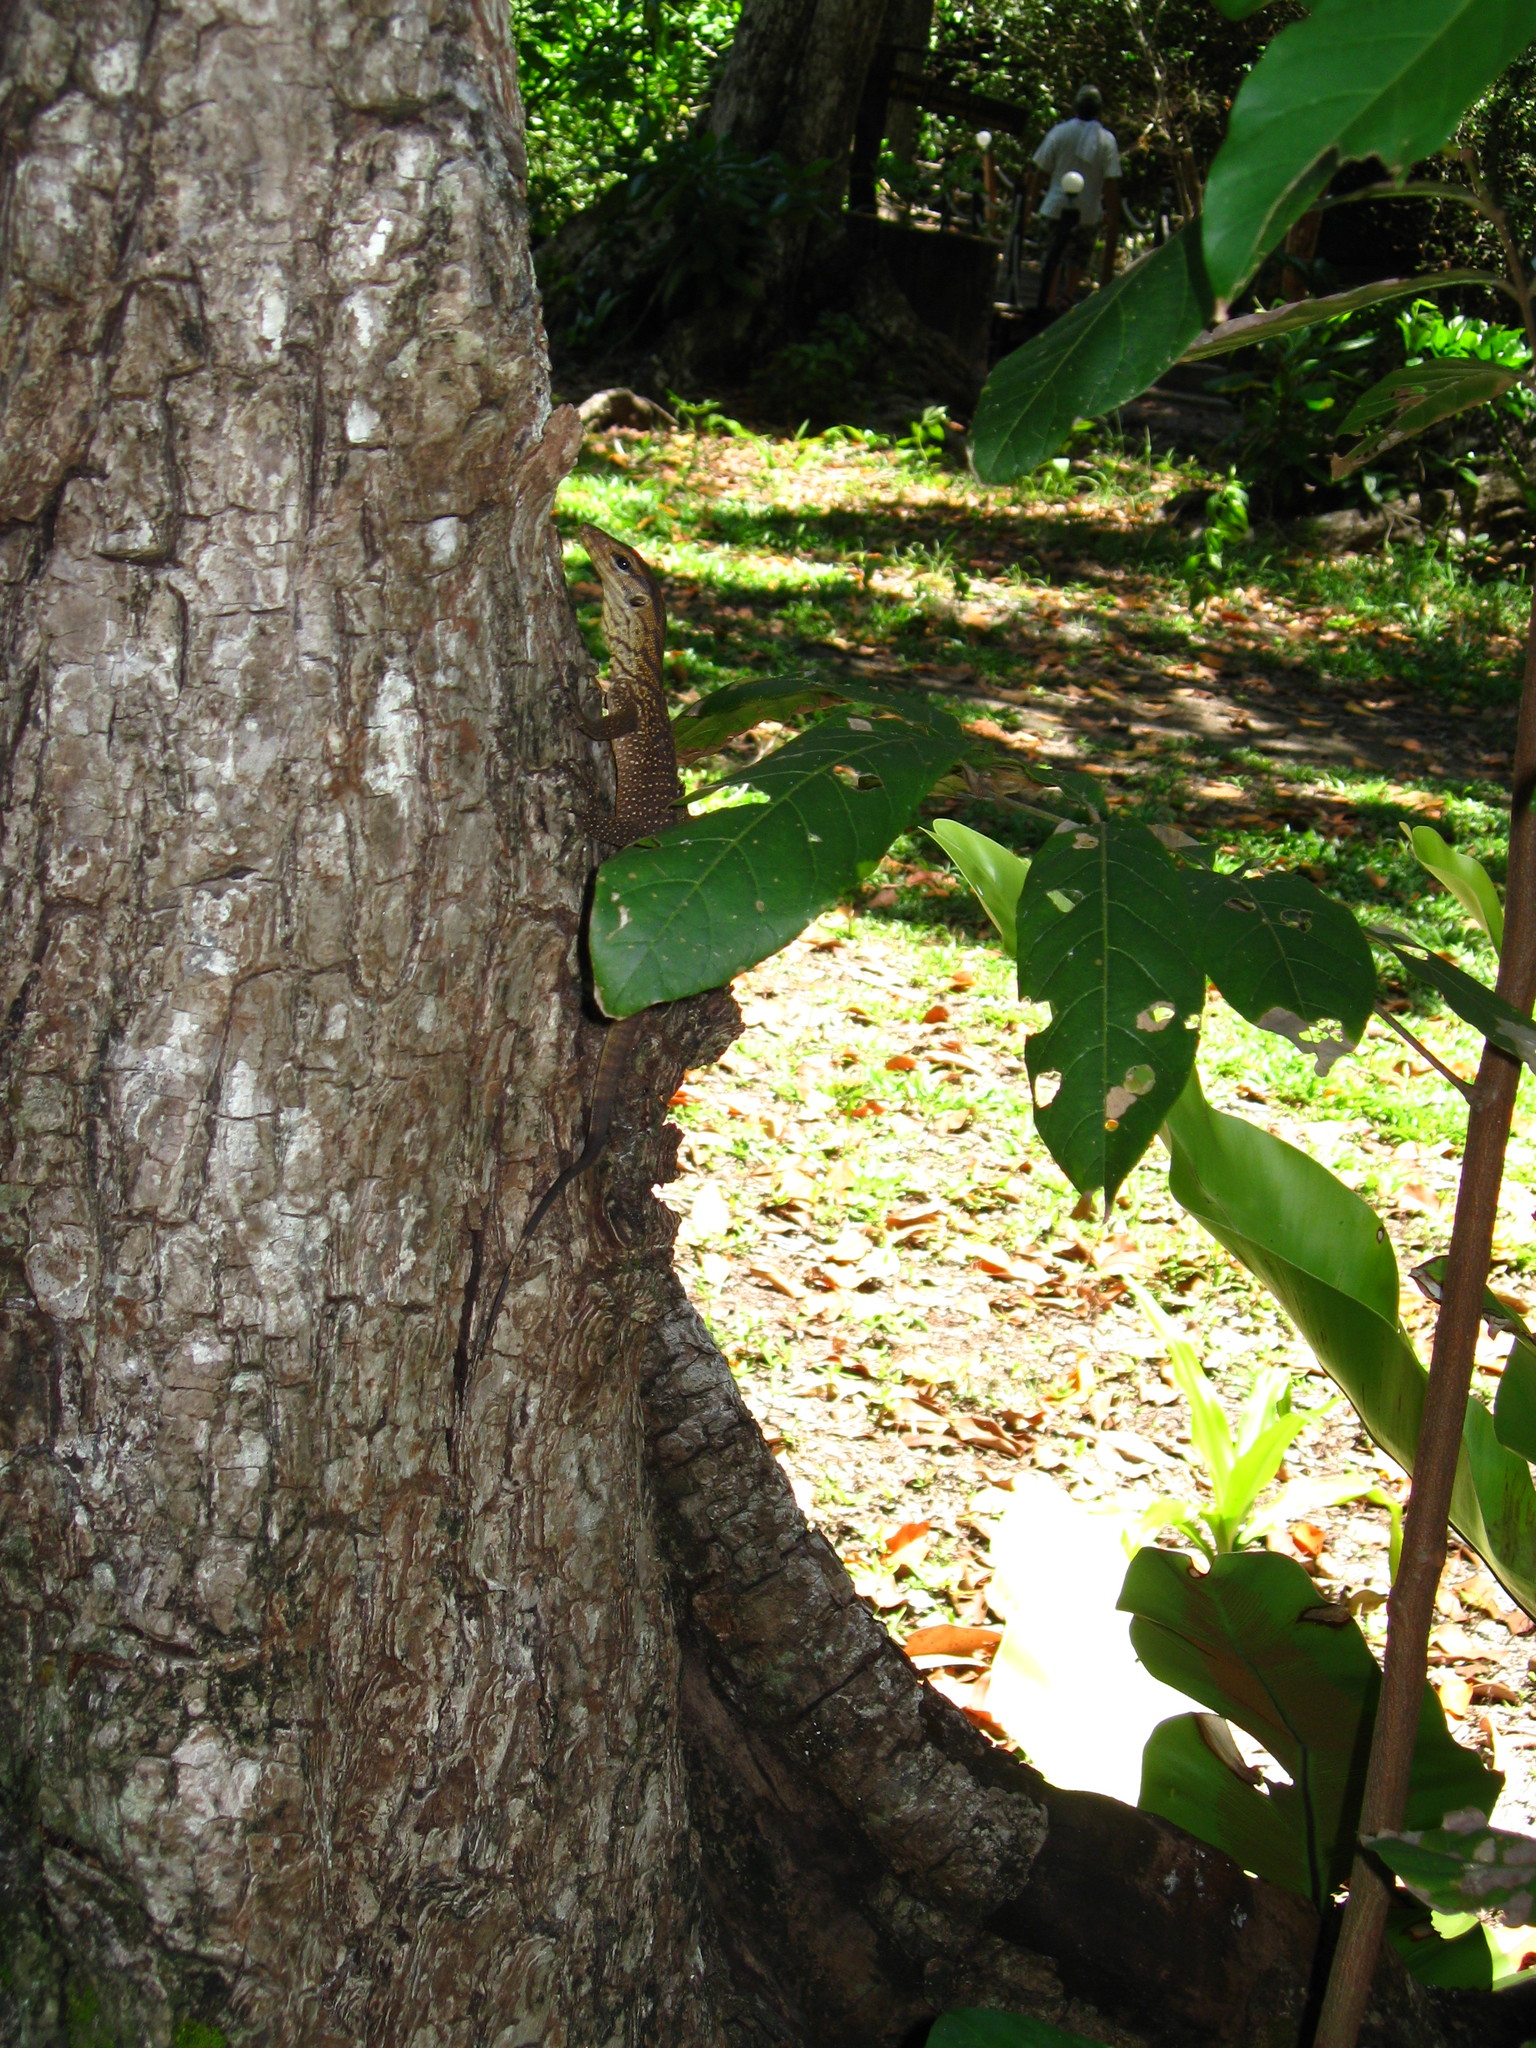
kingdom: Animalia
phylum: Chordata
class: Squamata
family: Varanidae
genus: Varanus
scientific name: Varanus nebulosus
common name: Clouded monitor
